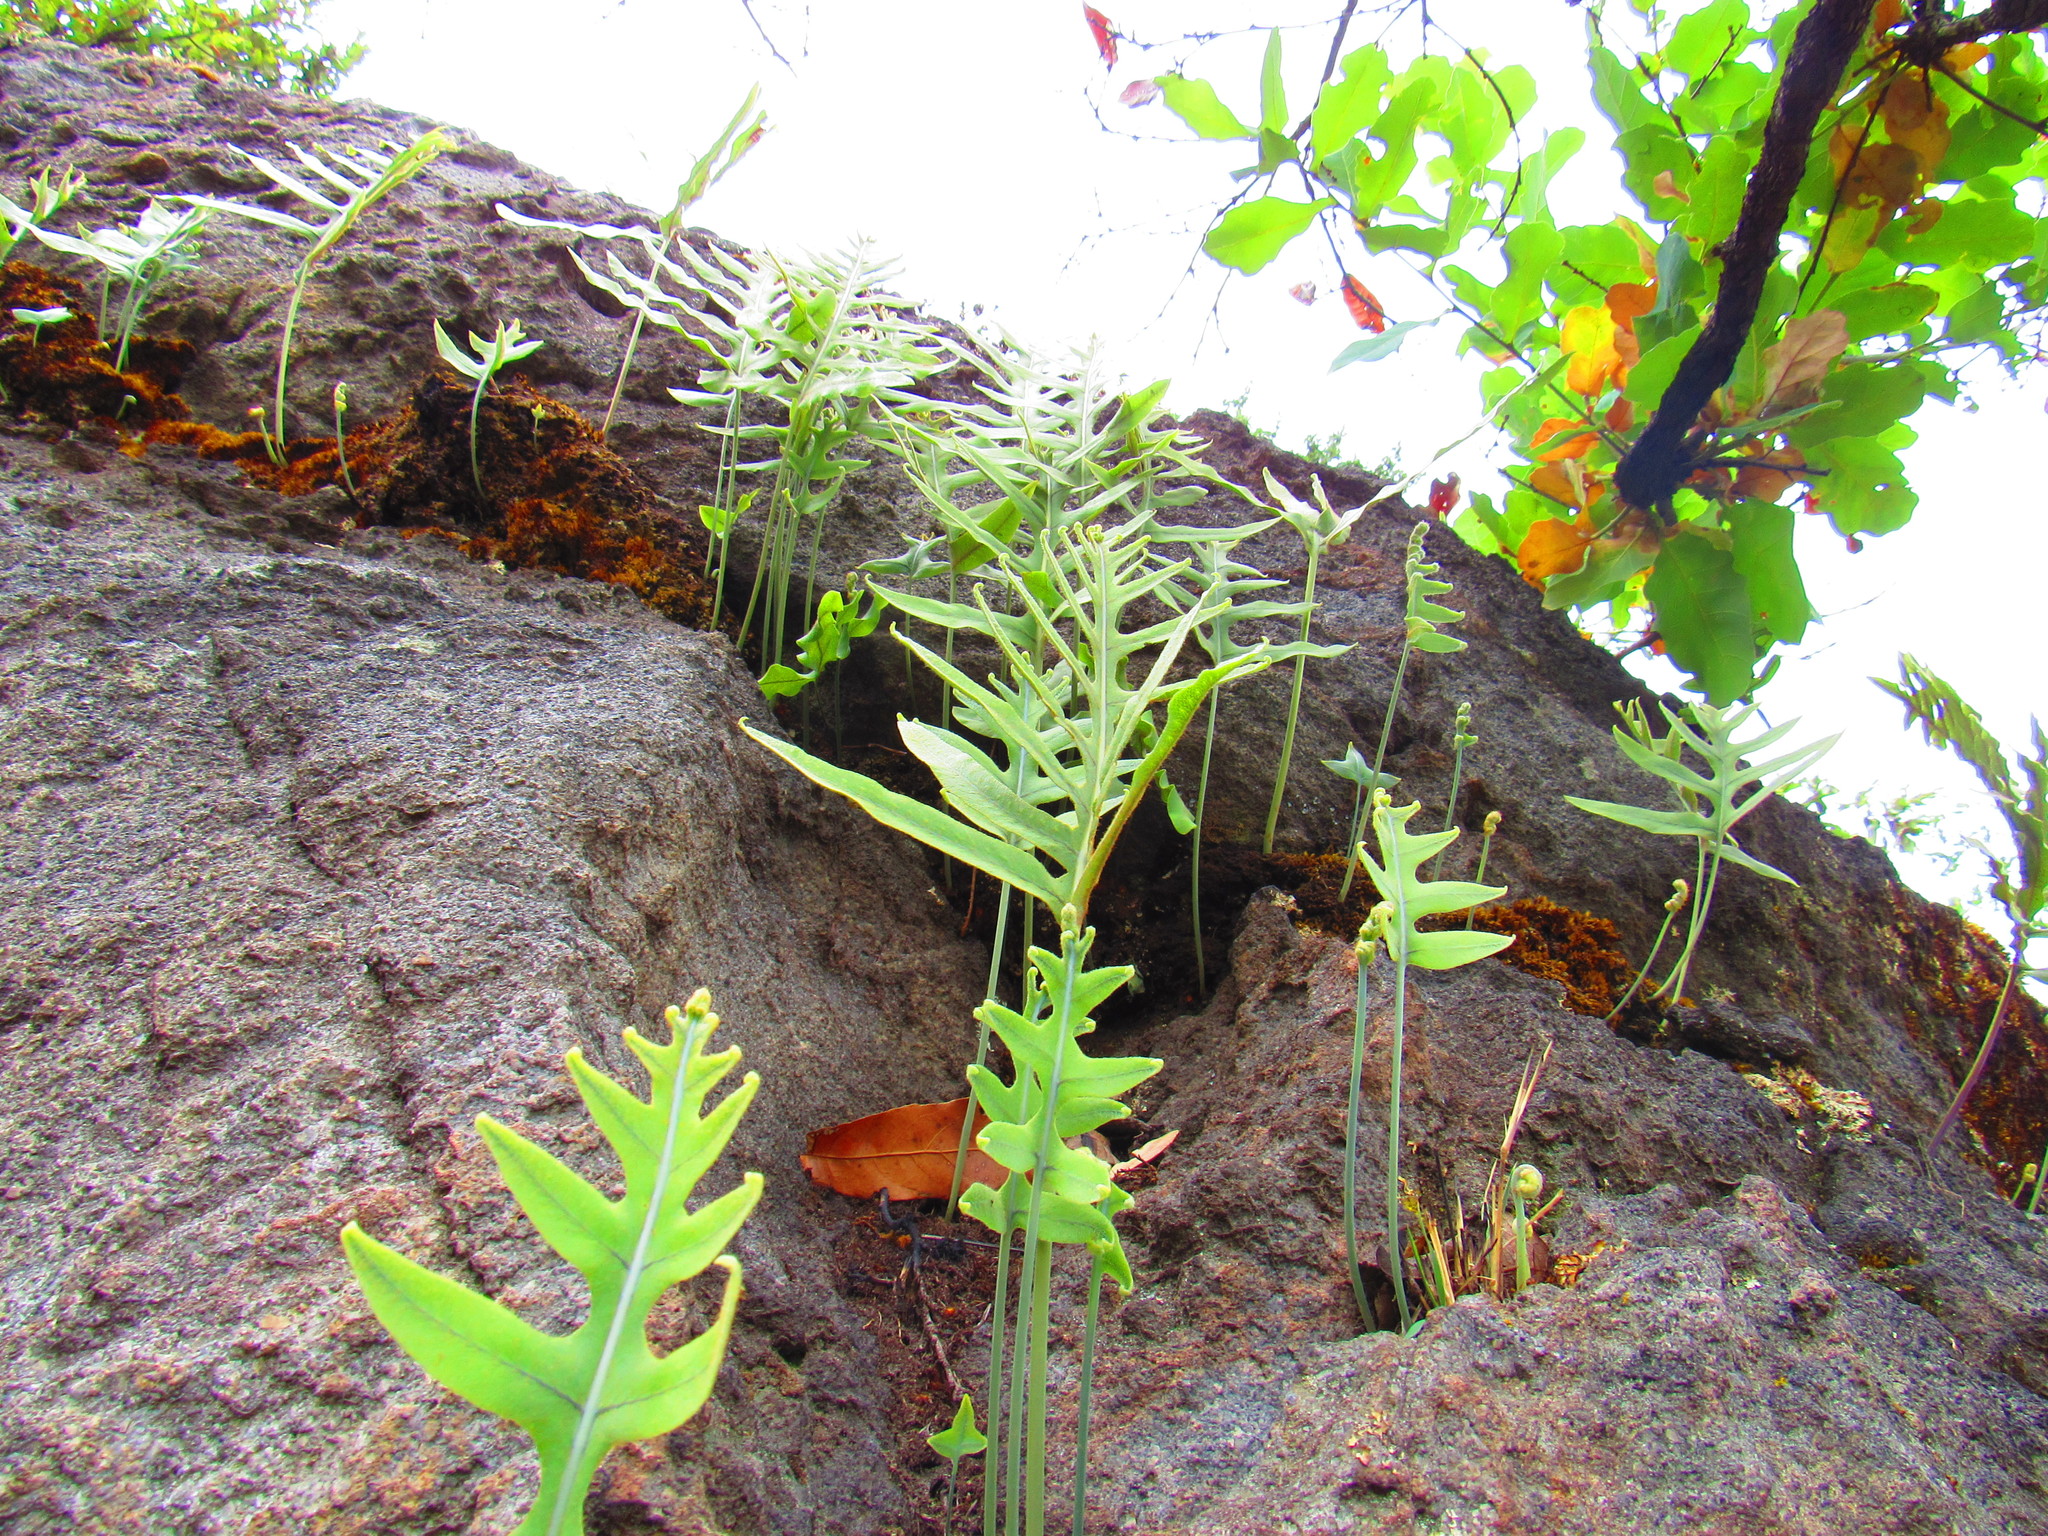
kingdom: Plantae
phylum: Tracheophyta
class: Polypodiopsida
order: Polypodiales
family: Polypodiaceae
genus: Phlebodium
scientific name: Phlebodium pseudoaureum
